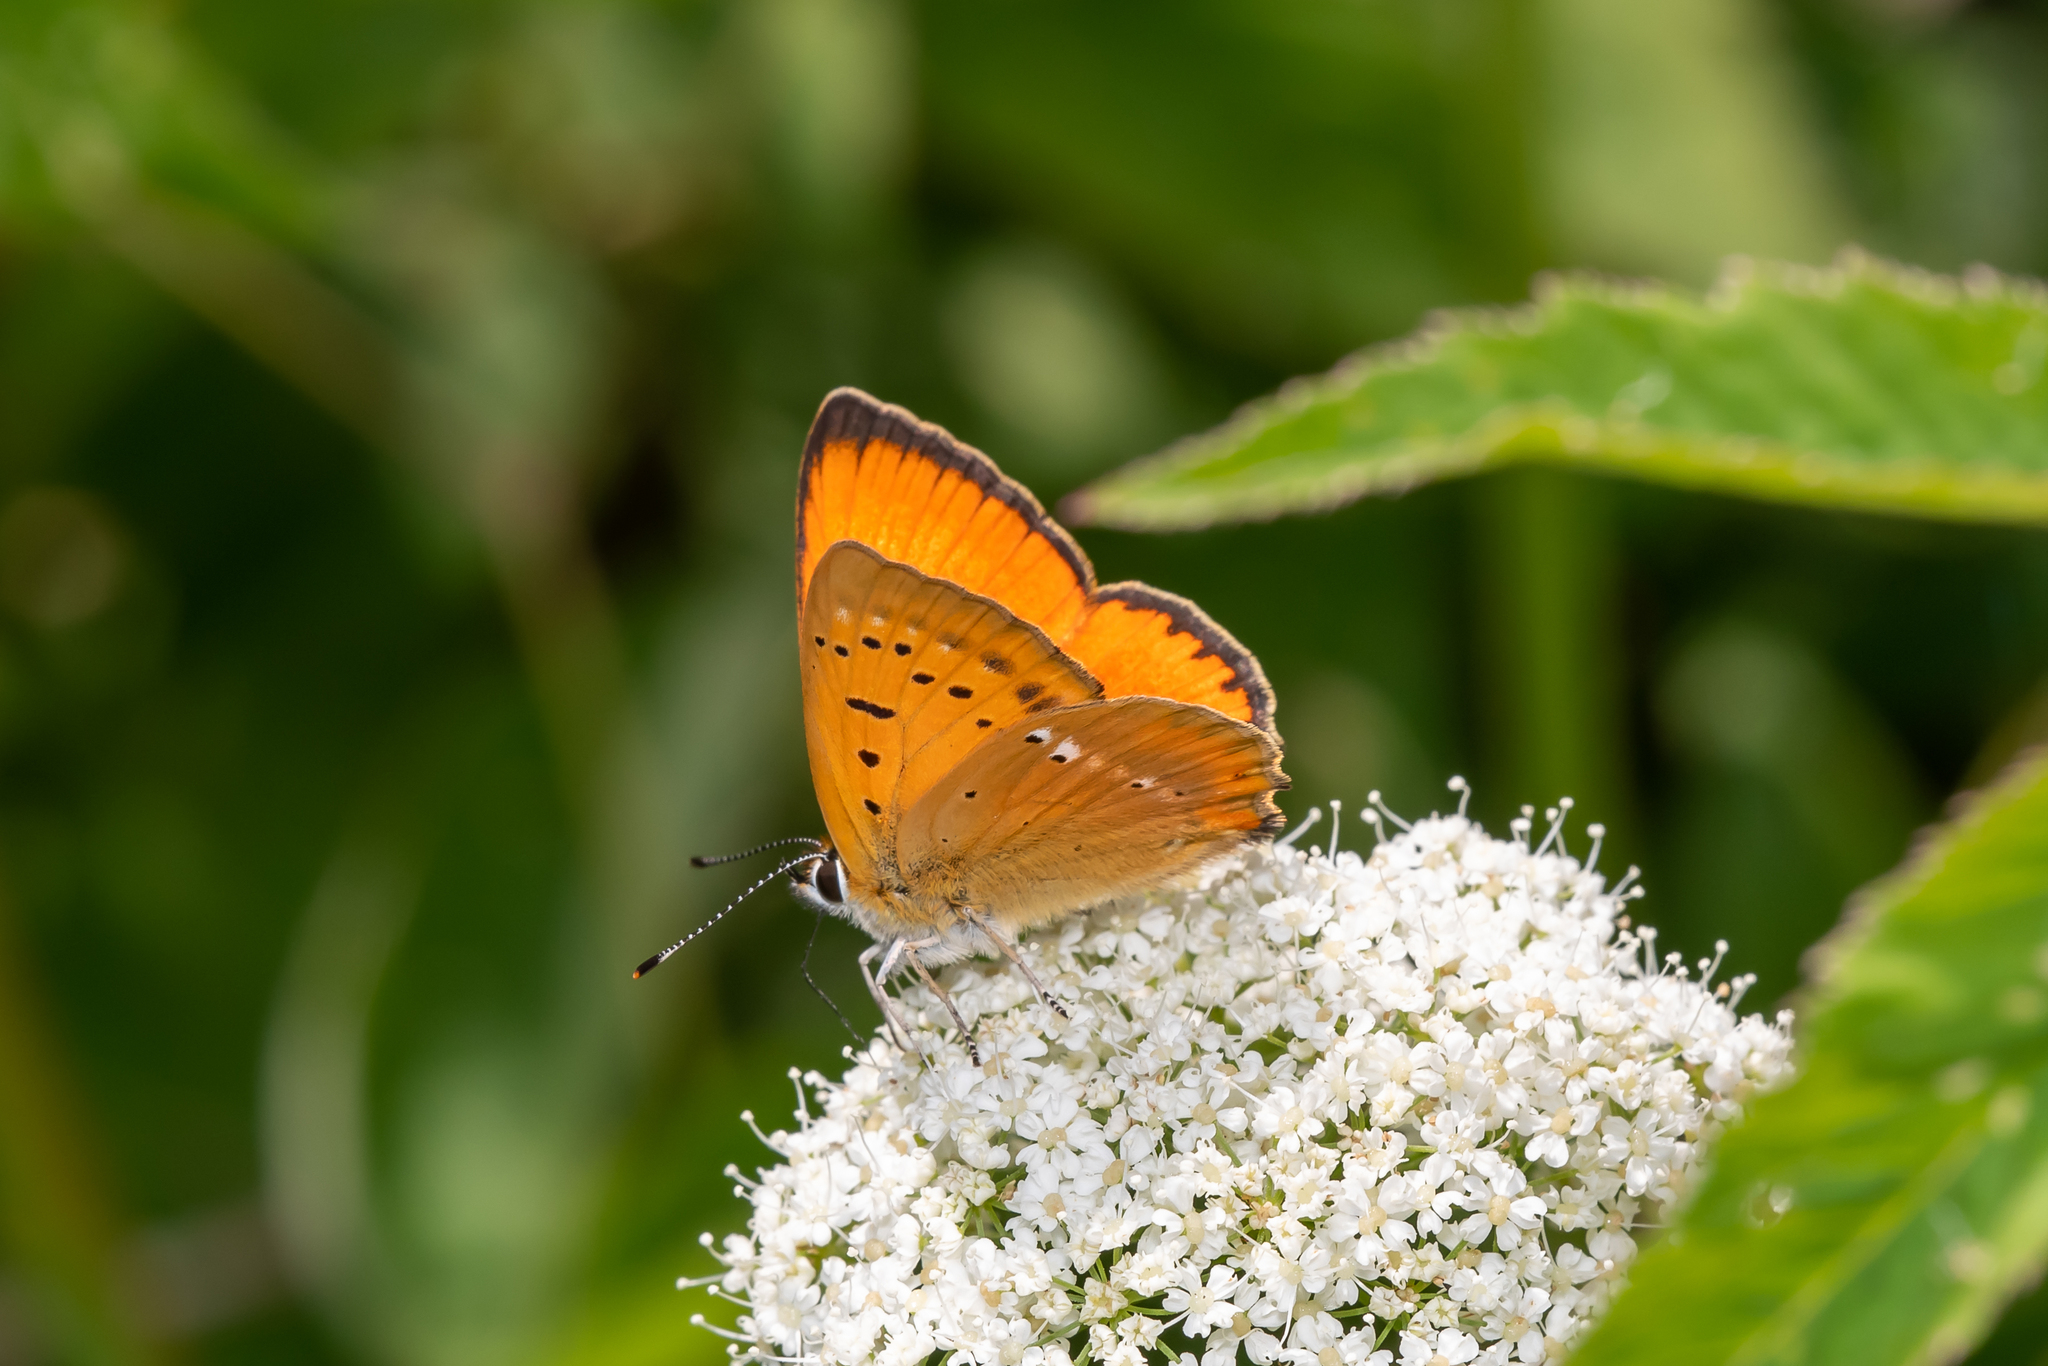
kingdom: Animalia
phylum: Arthropoda
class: Insecta
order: Lepidoptera
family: Lycaenidae
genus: Lycaena
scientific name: Lycaena virgaureae
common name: Scarce copper
